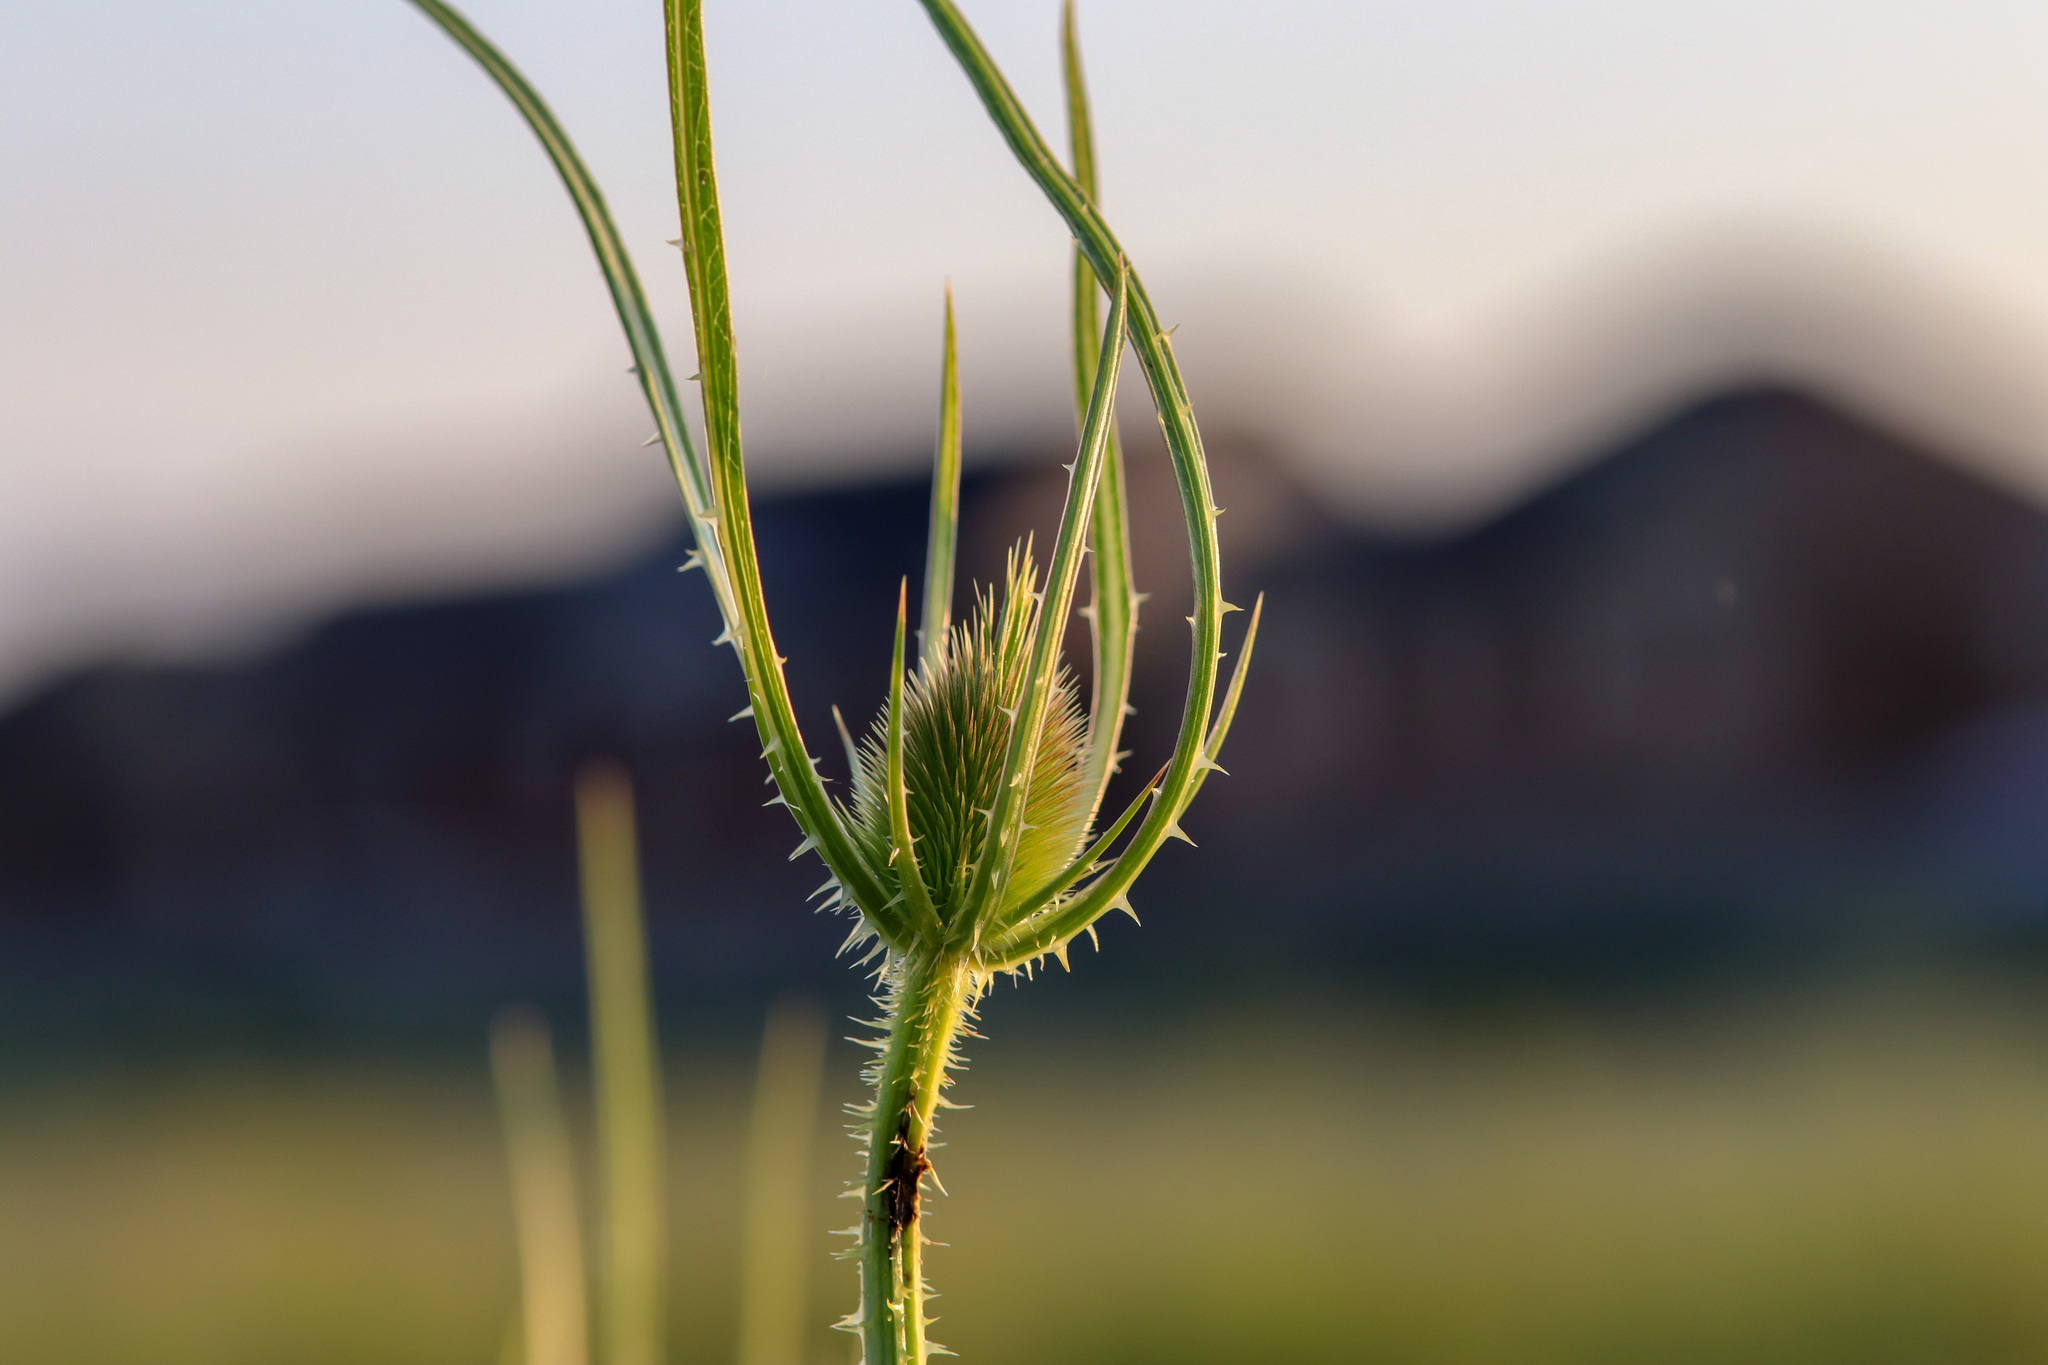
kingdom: Plantae
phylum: Tracheophyta
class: Magnoliopsida
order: Dipsacales
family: Caprifoliaceae
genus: Dipsacus
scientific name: Dipsacus fullonum
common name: Teasel
